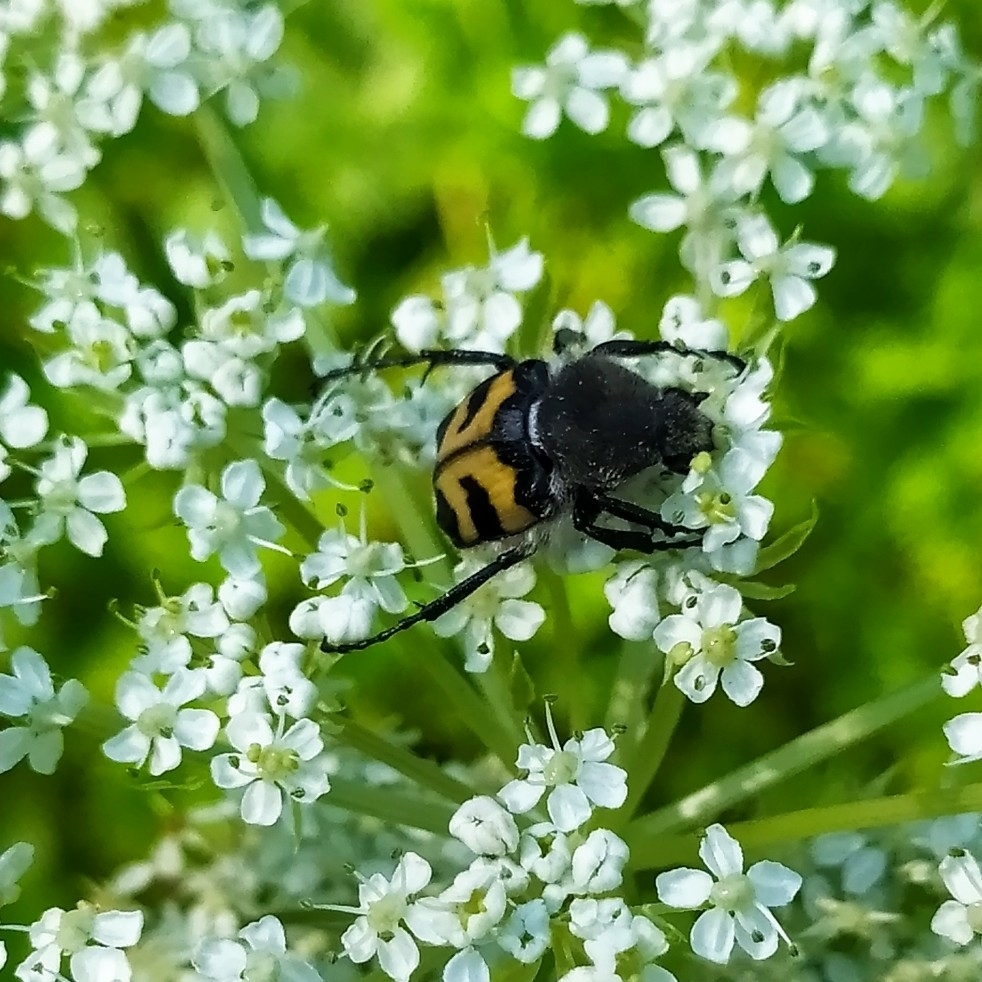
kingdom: Animalia
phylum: Arthropoda
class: Insecta
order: Coleoptera
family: Scarabaeidae
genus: Trichius
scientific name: Trichius fasciatus
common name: Bee beetle
